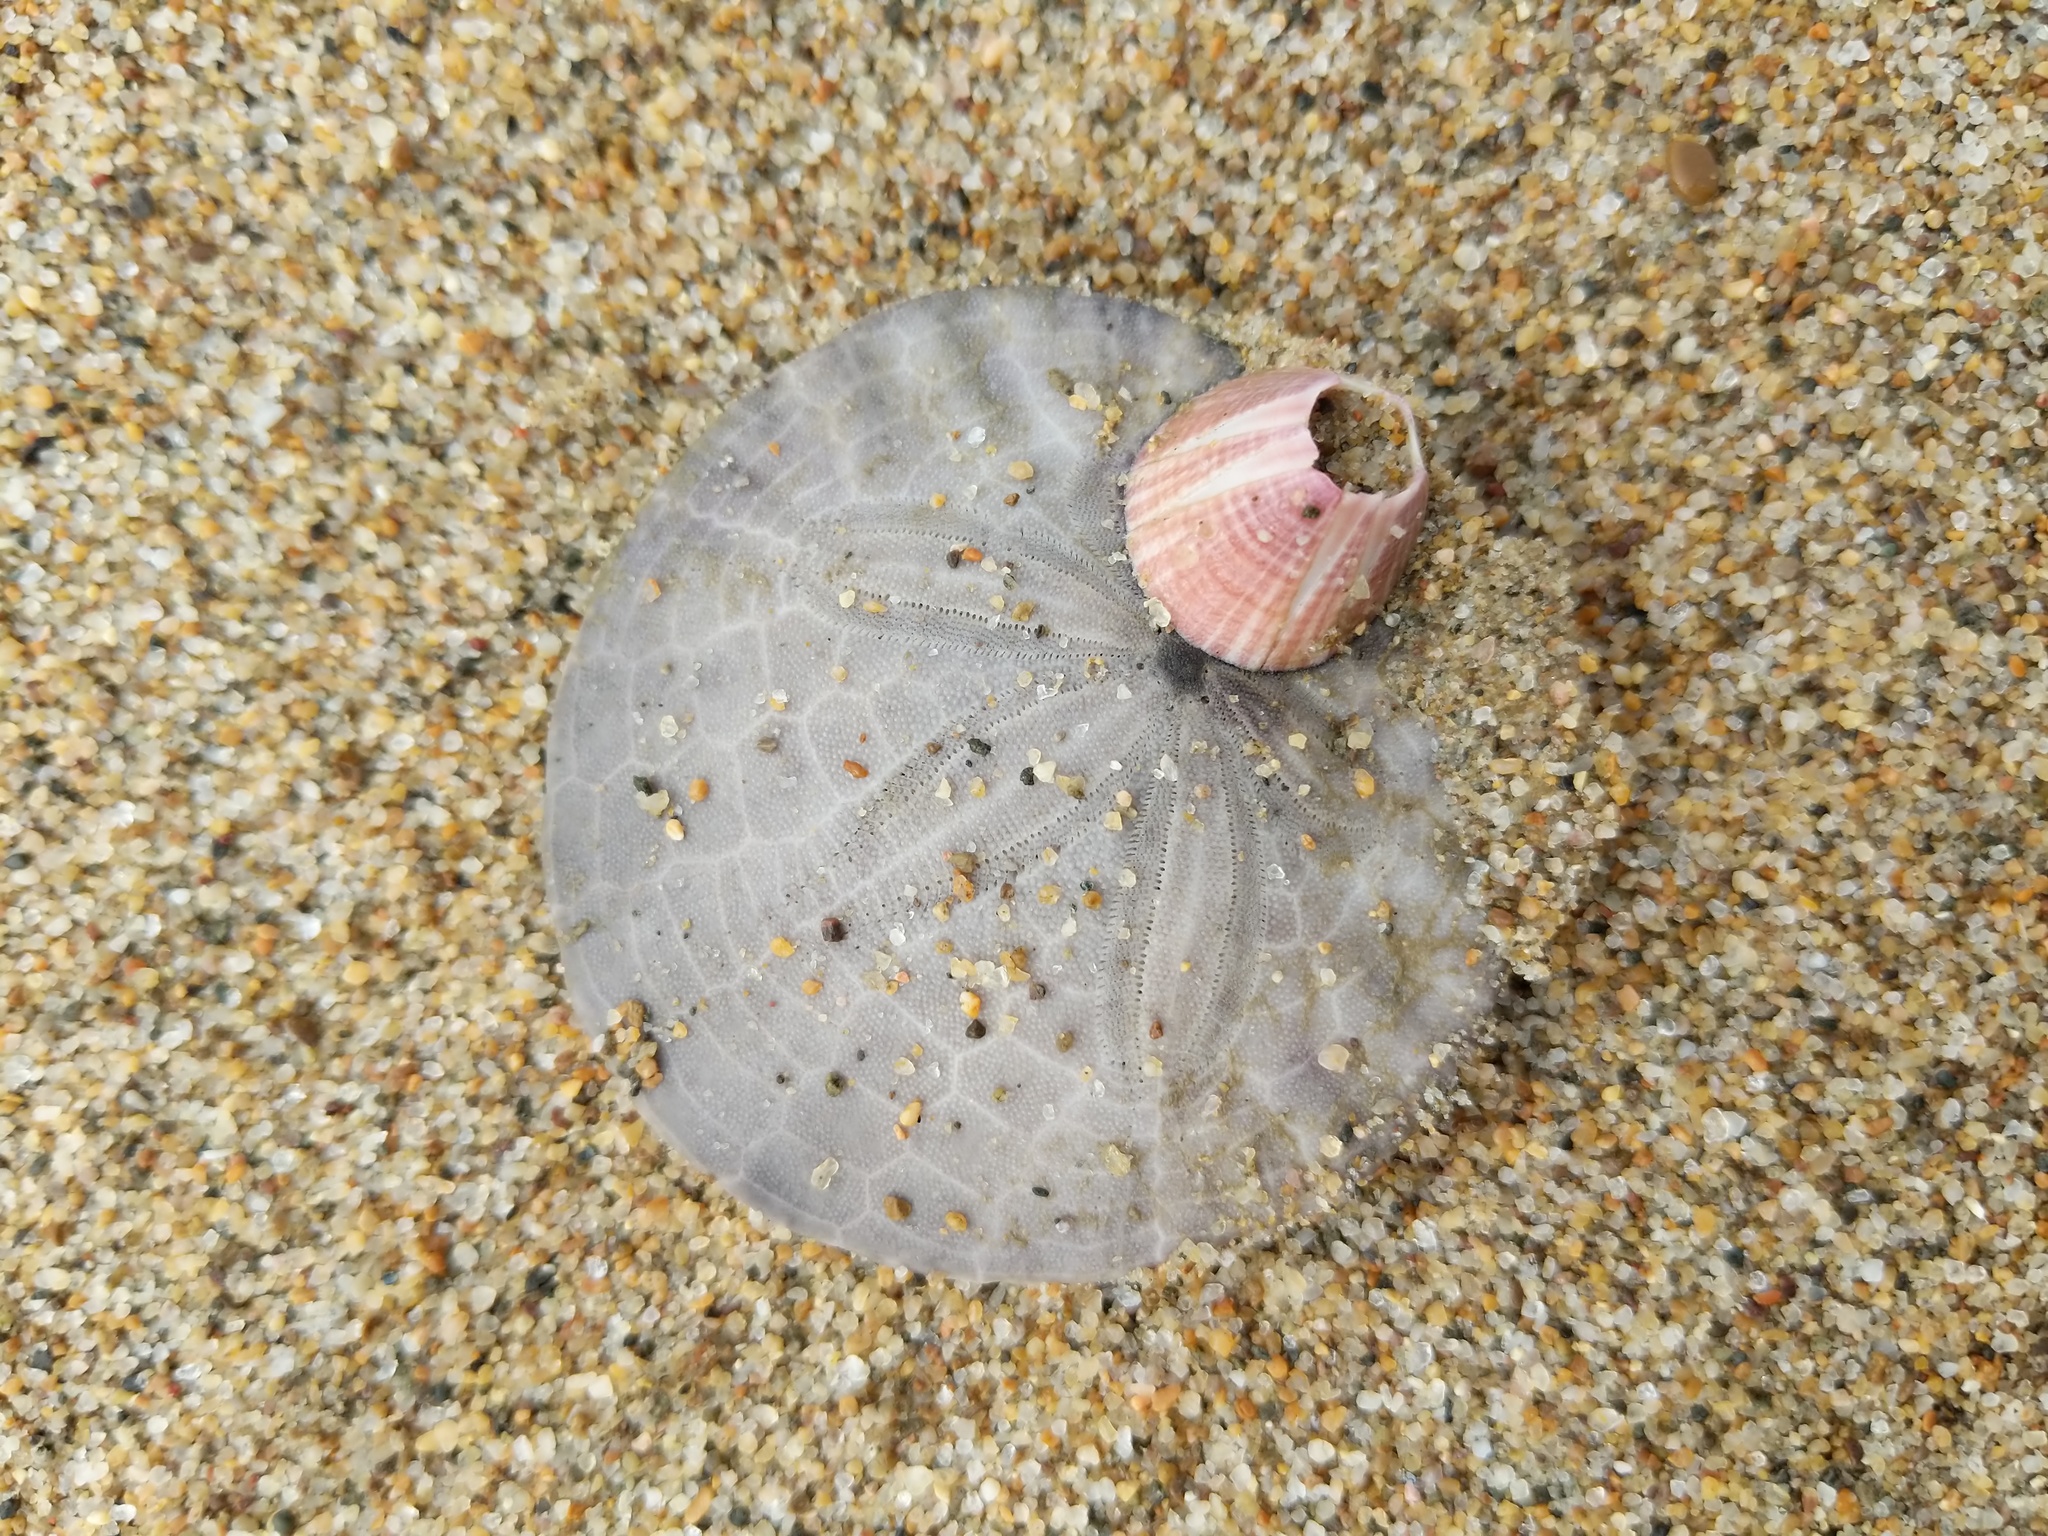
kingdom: Animalia
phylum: Echinodermata
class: Echinoidea
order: Echinolampadacea
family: Dendrasteridae
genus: Dendraster
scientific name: Dendraster excentricus
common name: Eccentric sand dollar sea urchin
